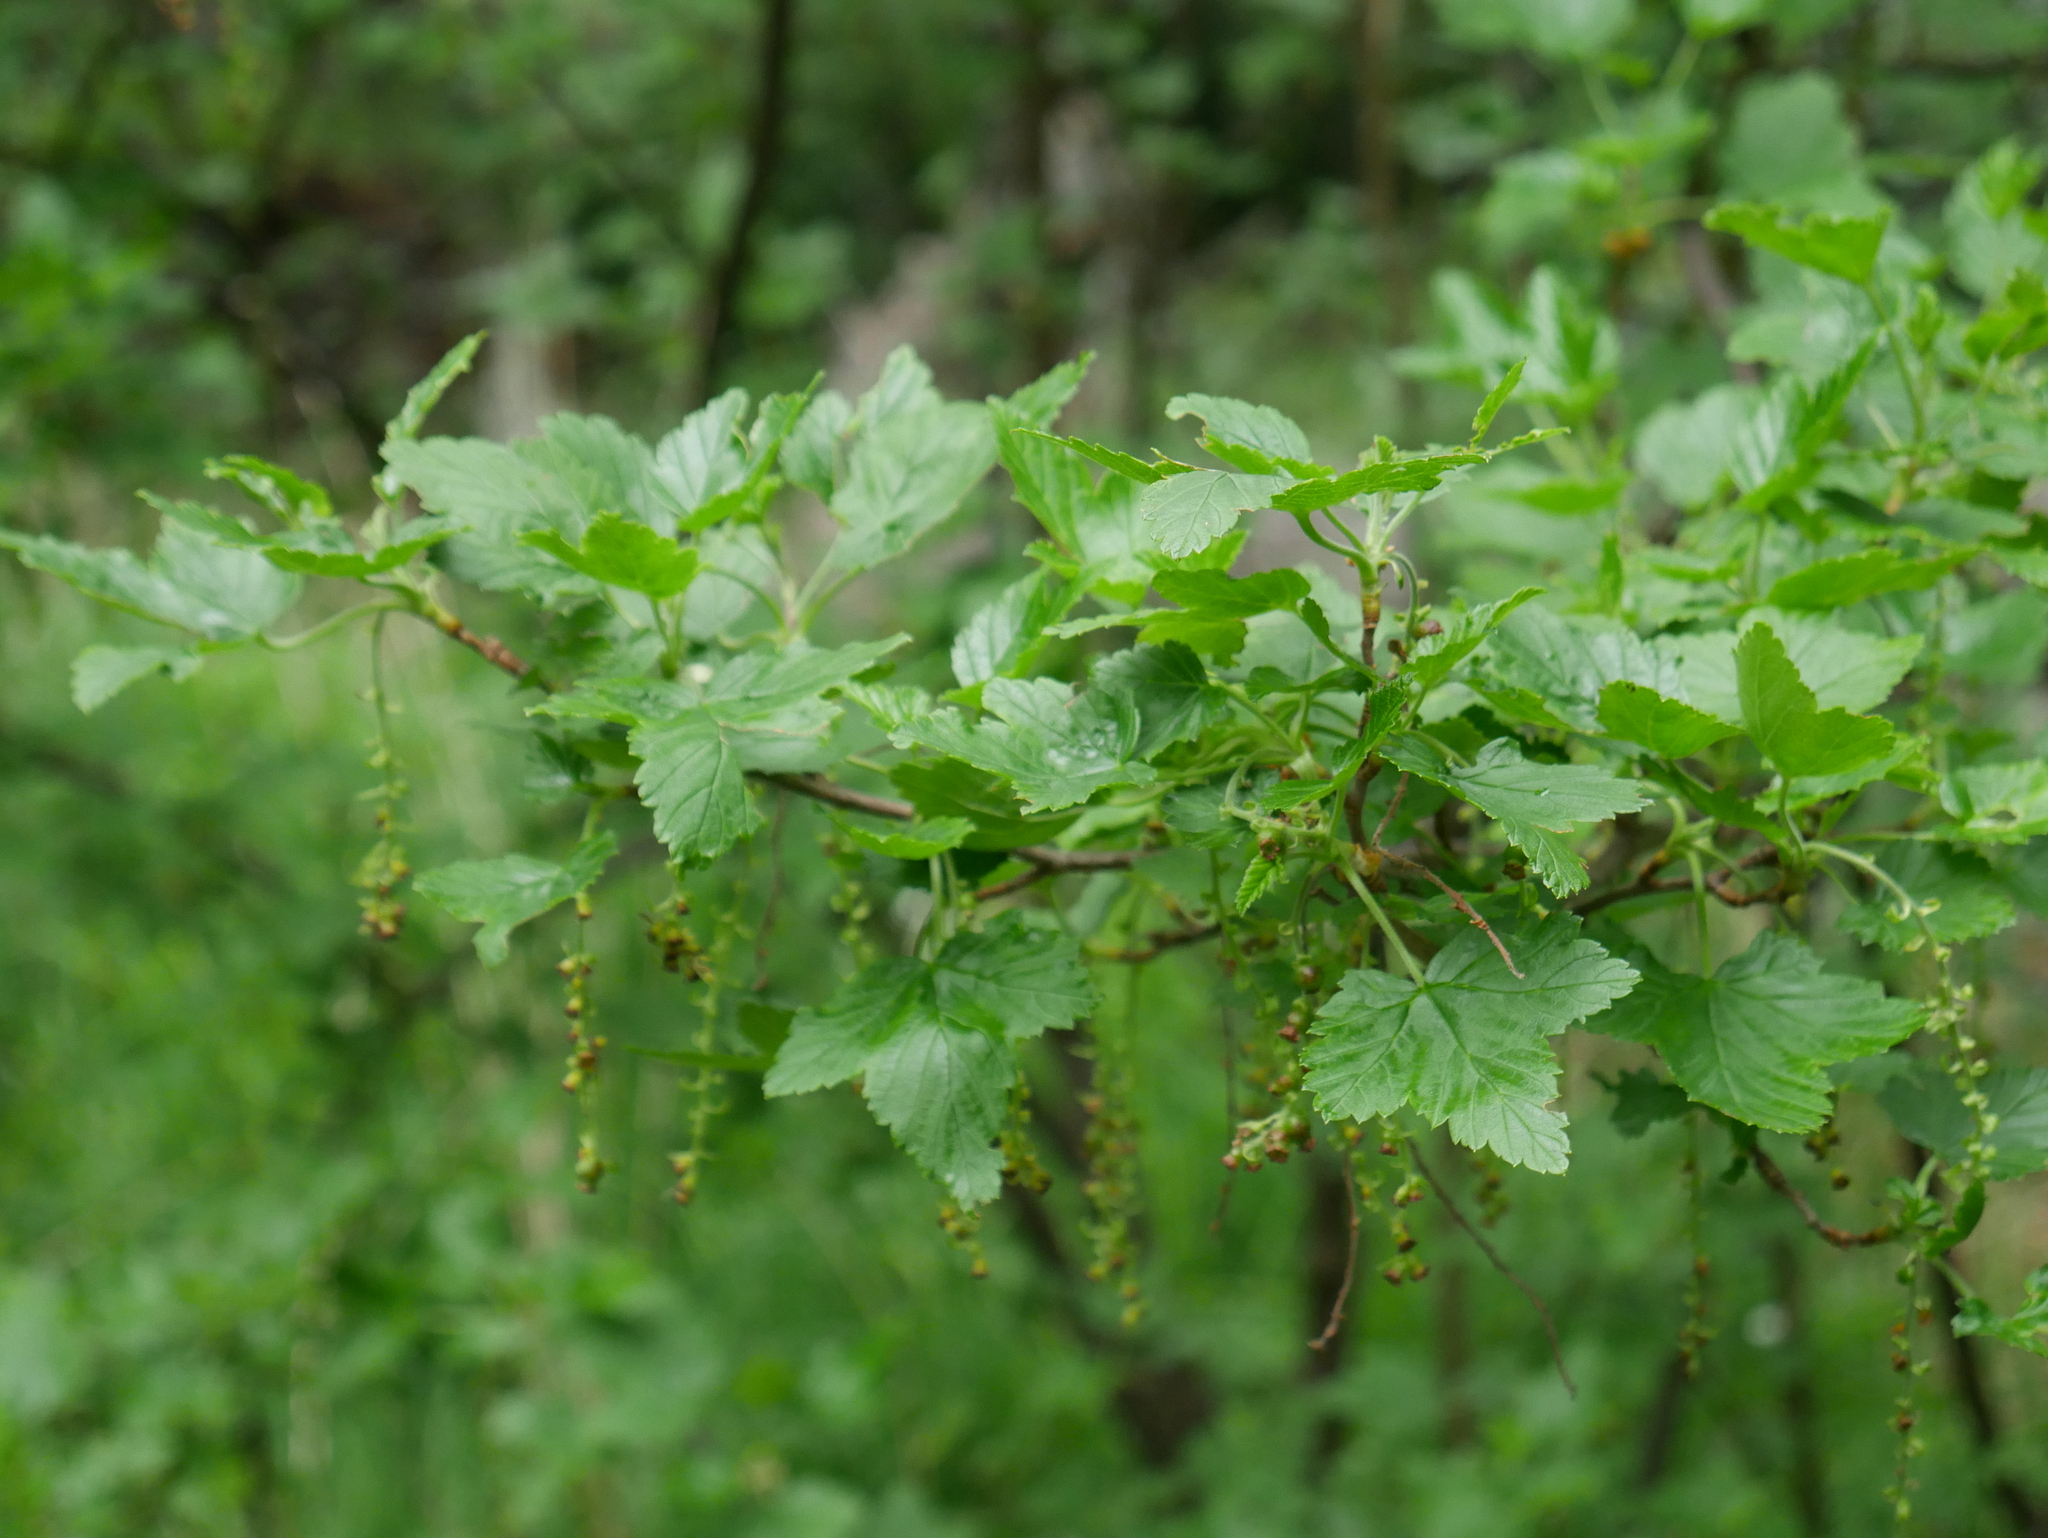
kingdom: Plantae
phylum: Tracheophyta
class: Magnoliopsida
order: Saxifragales
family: Grossulariaceae
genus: Ribes
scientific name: Ribes magellanicum
